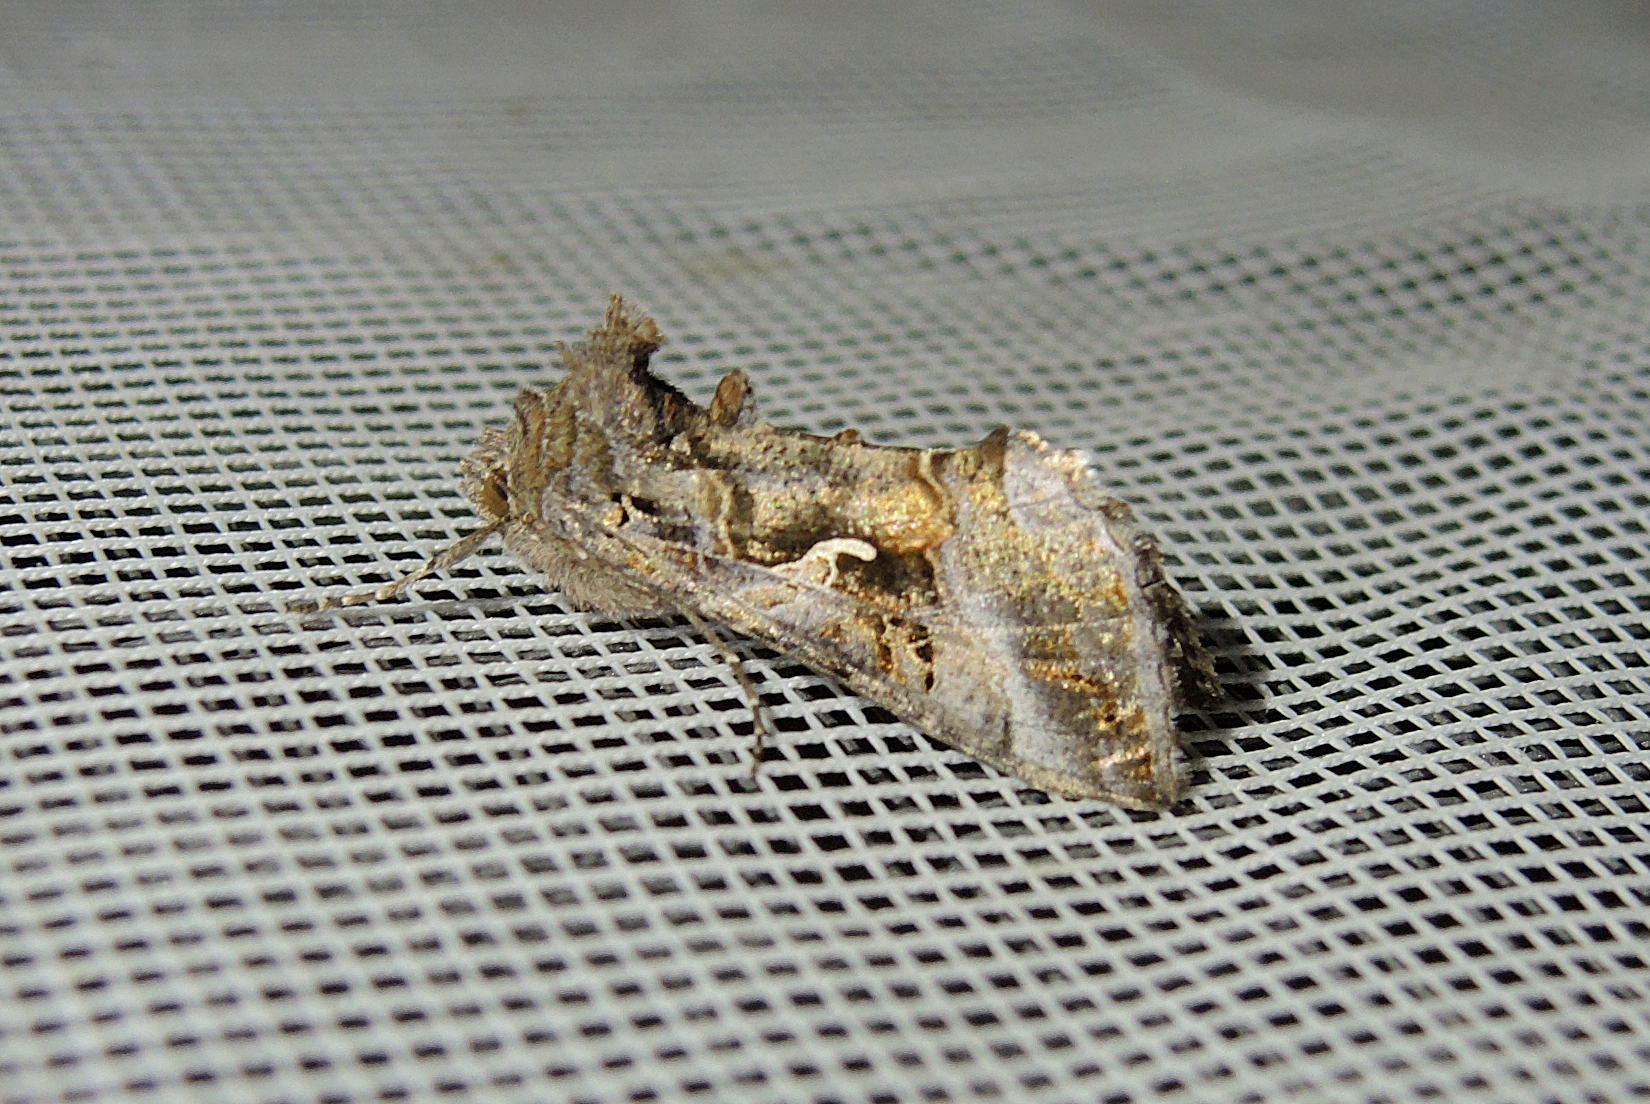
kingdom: Animalia
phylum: Arthropoda
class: Insecta
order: Lepidoptera
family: Noctuidae
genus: Autographa
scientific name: Autographa gamma
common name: Silver y
